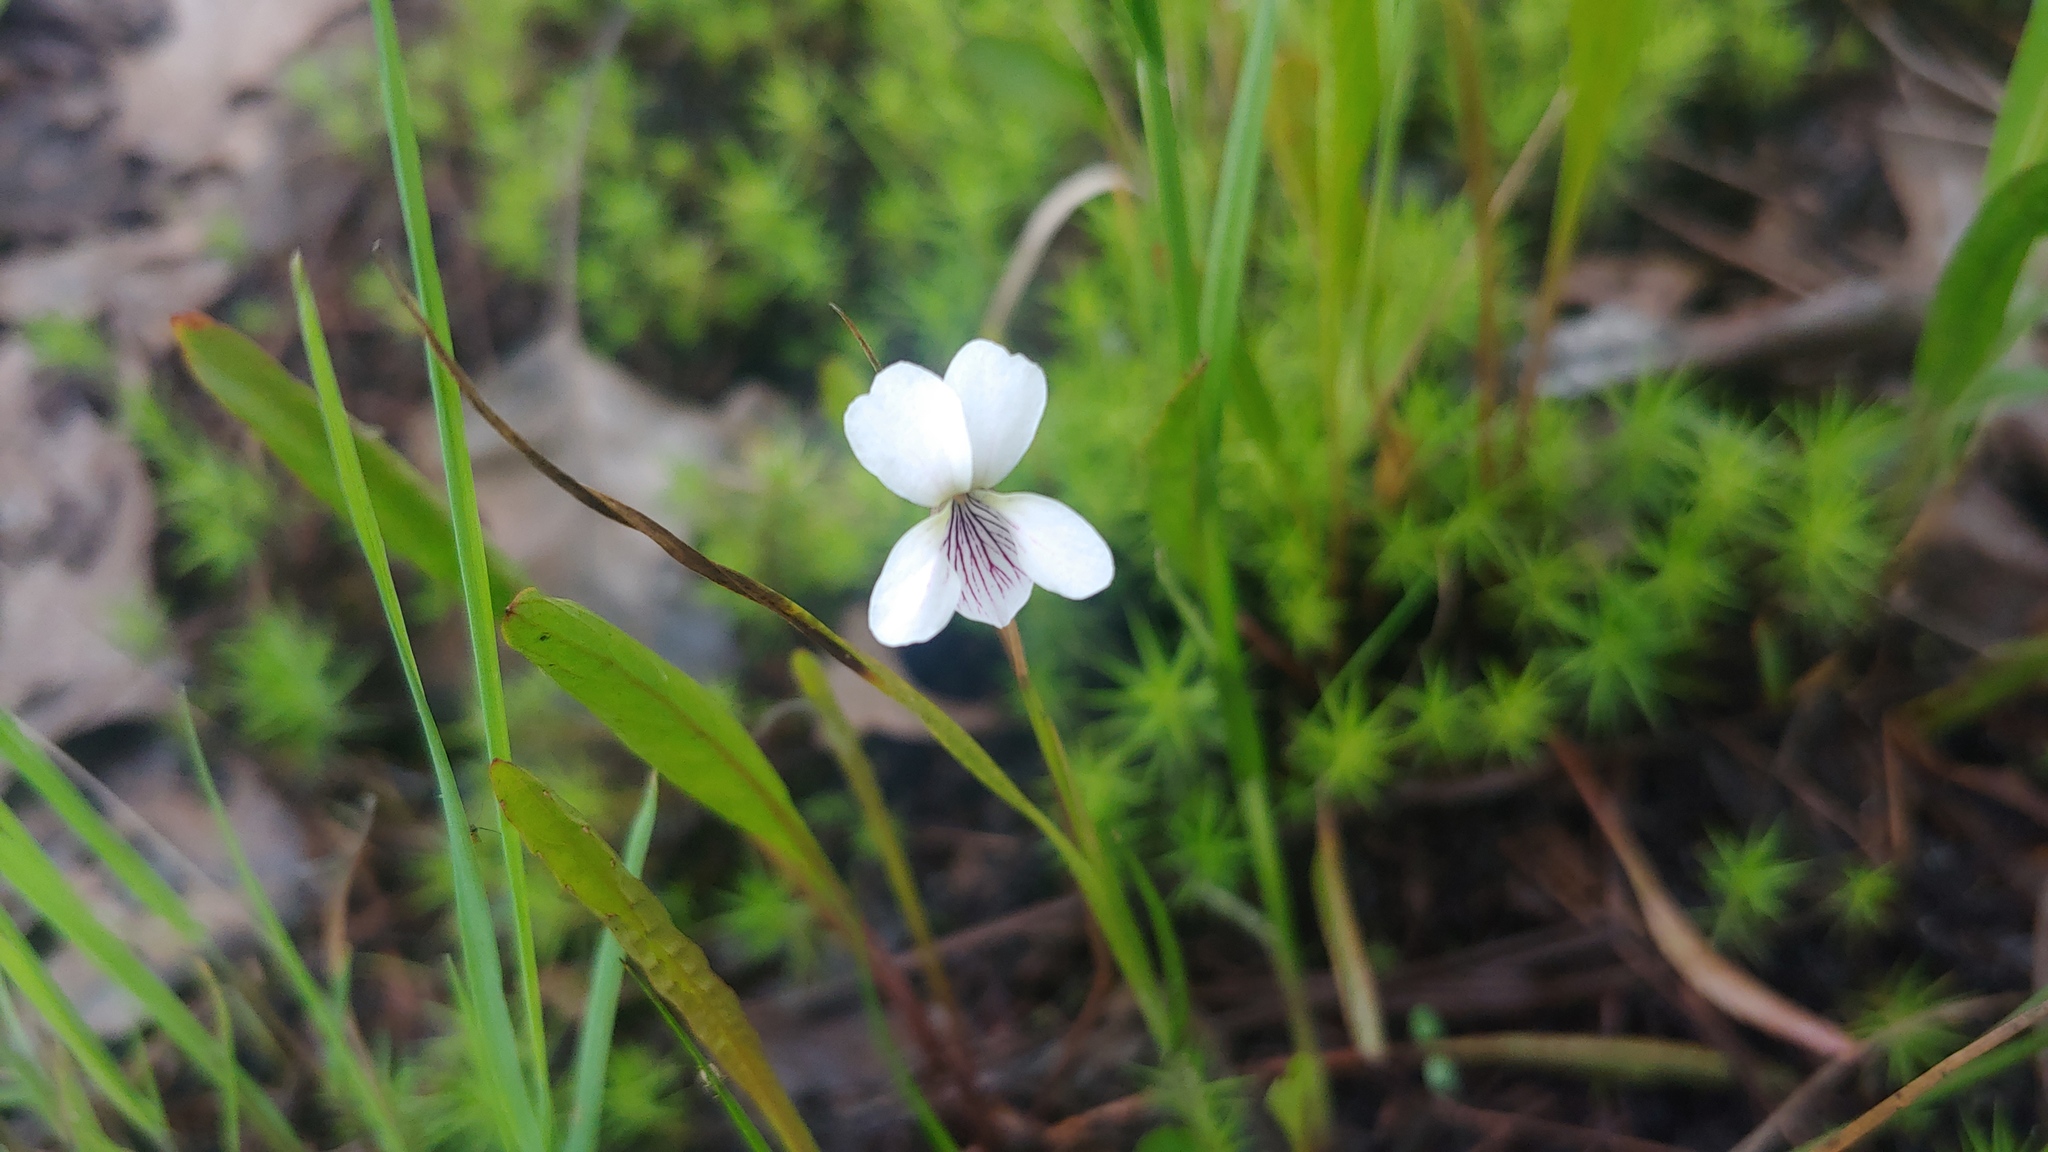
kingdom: Plantae
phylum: Tracheophyta
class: Magnoliopsida
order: Malpighiales
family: Violaceae
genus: Viola
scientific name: Viola lanceolata
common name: Bog white violet
